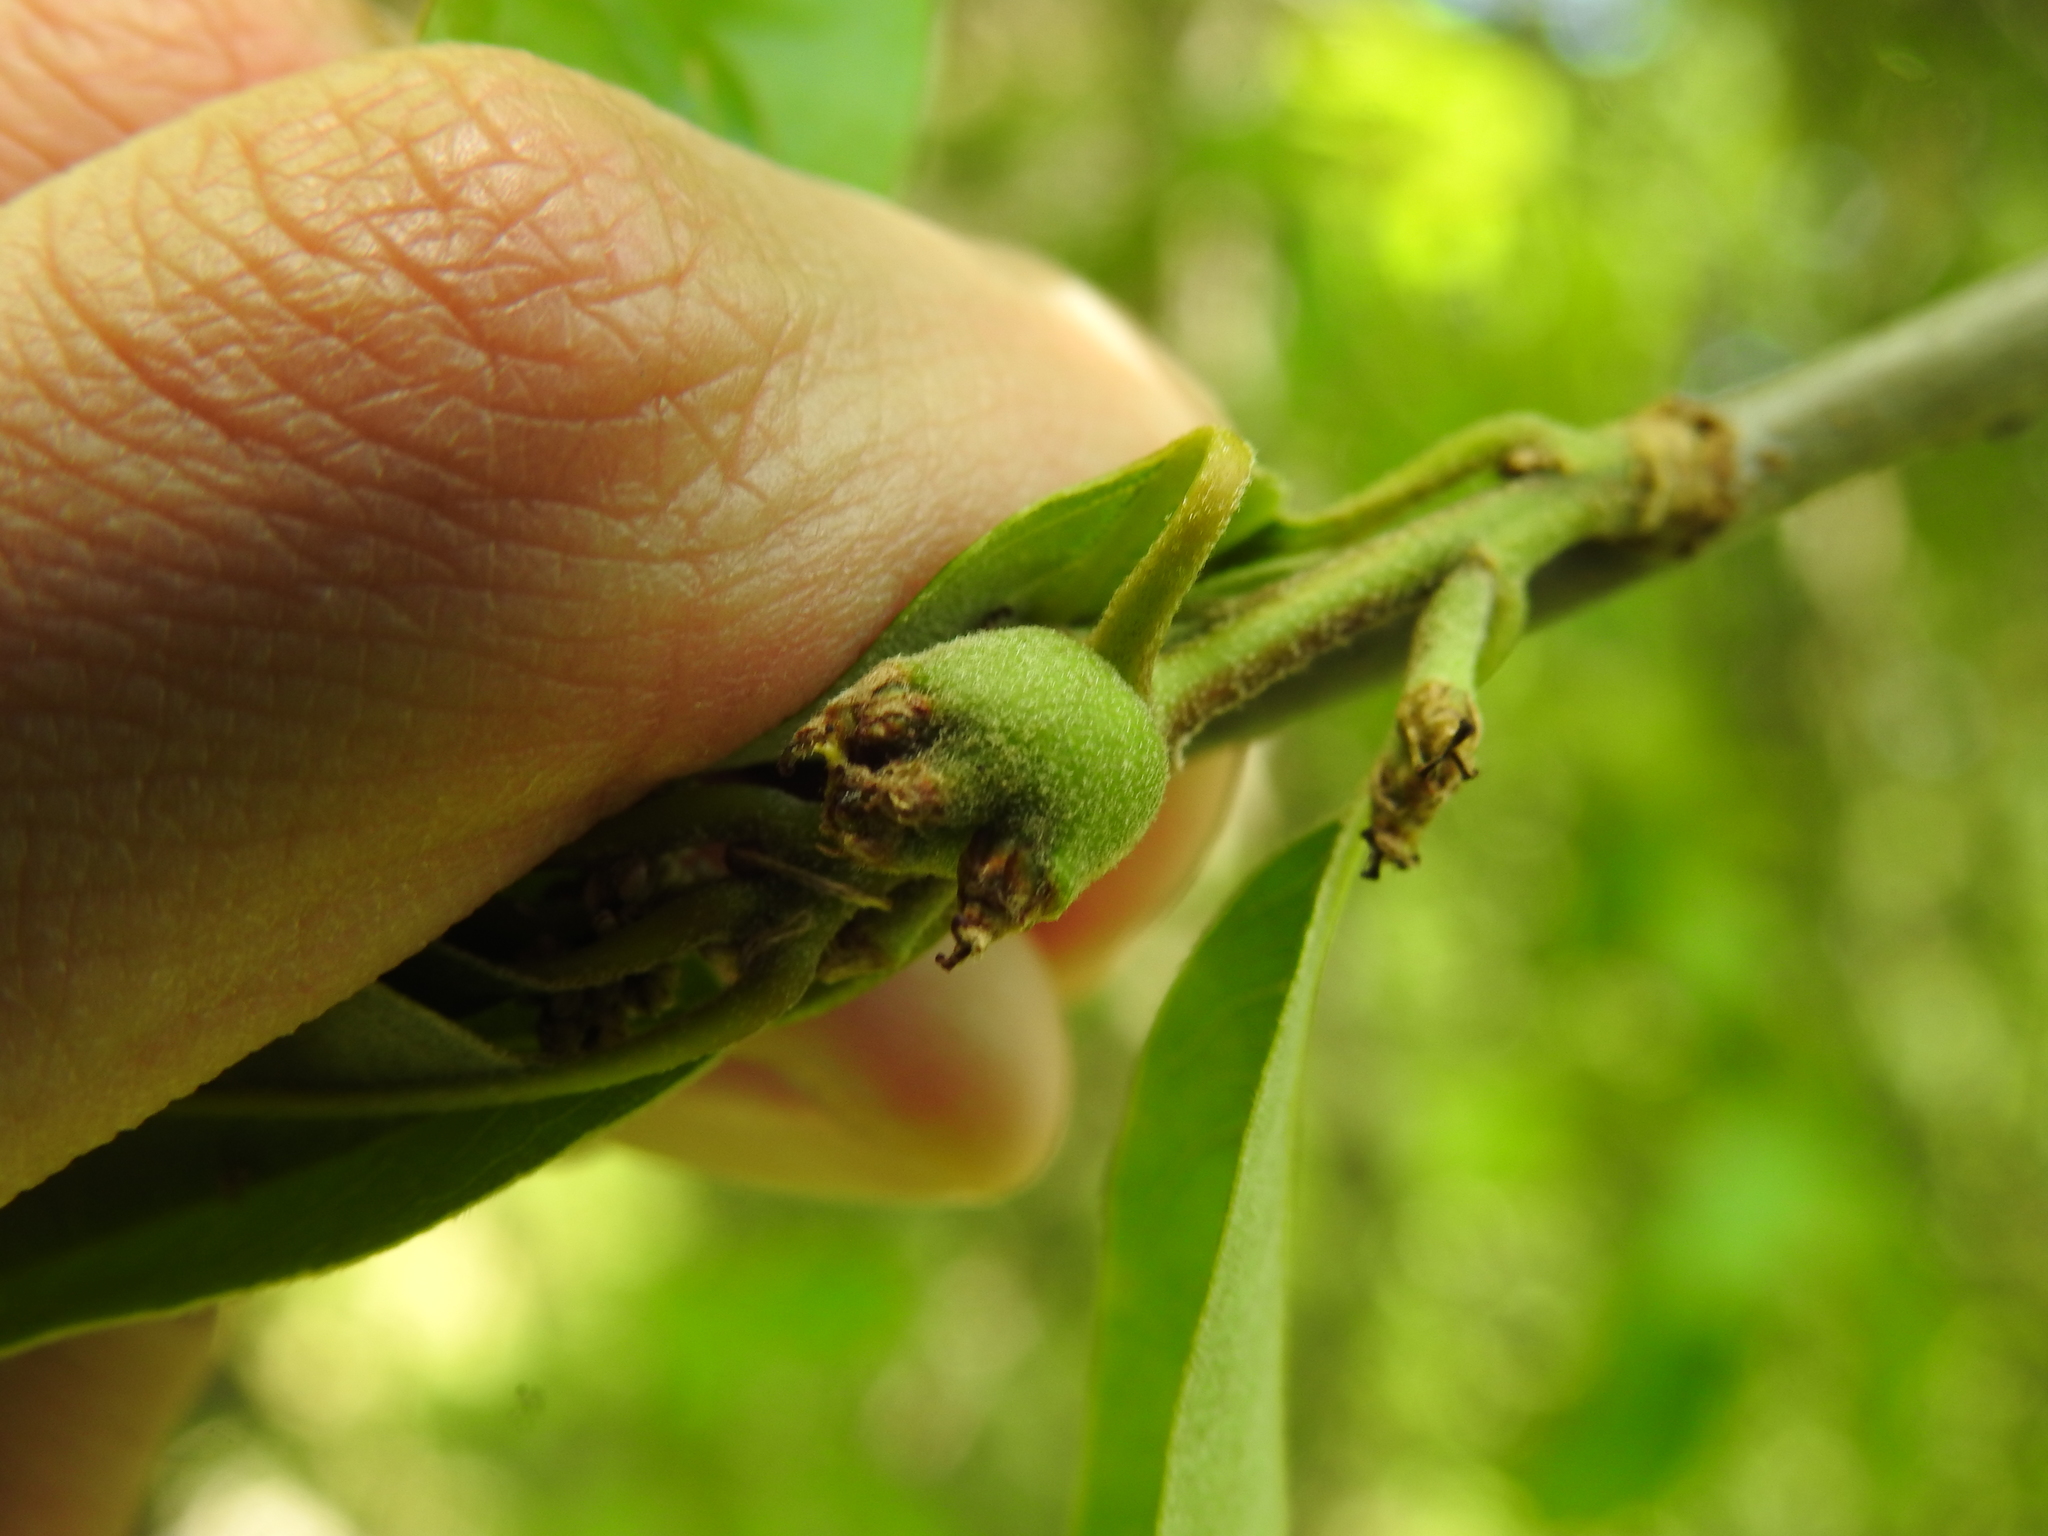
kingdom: Animalia
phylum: Arthropoda
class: Insecta
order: Hymenoptera
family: Cynipidae
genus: Callirhytis
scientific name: Callirhytis
